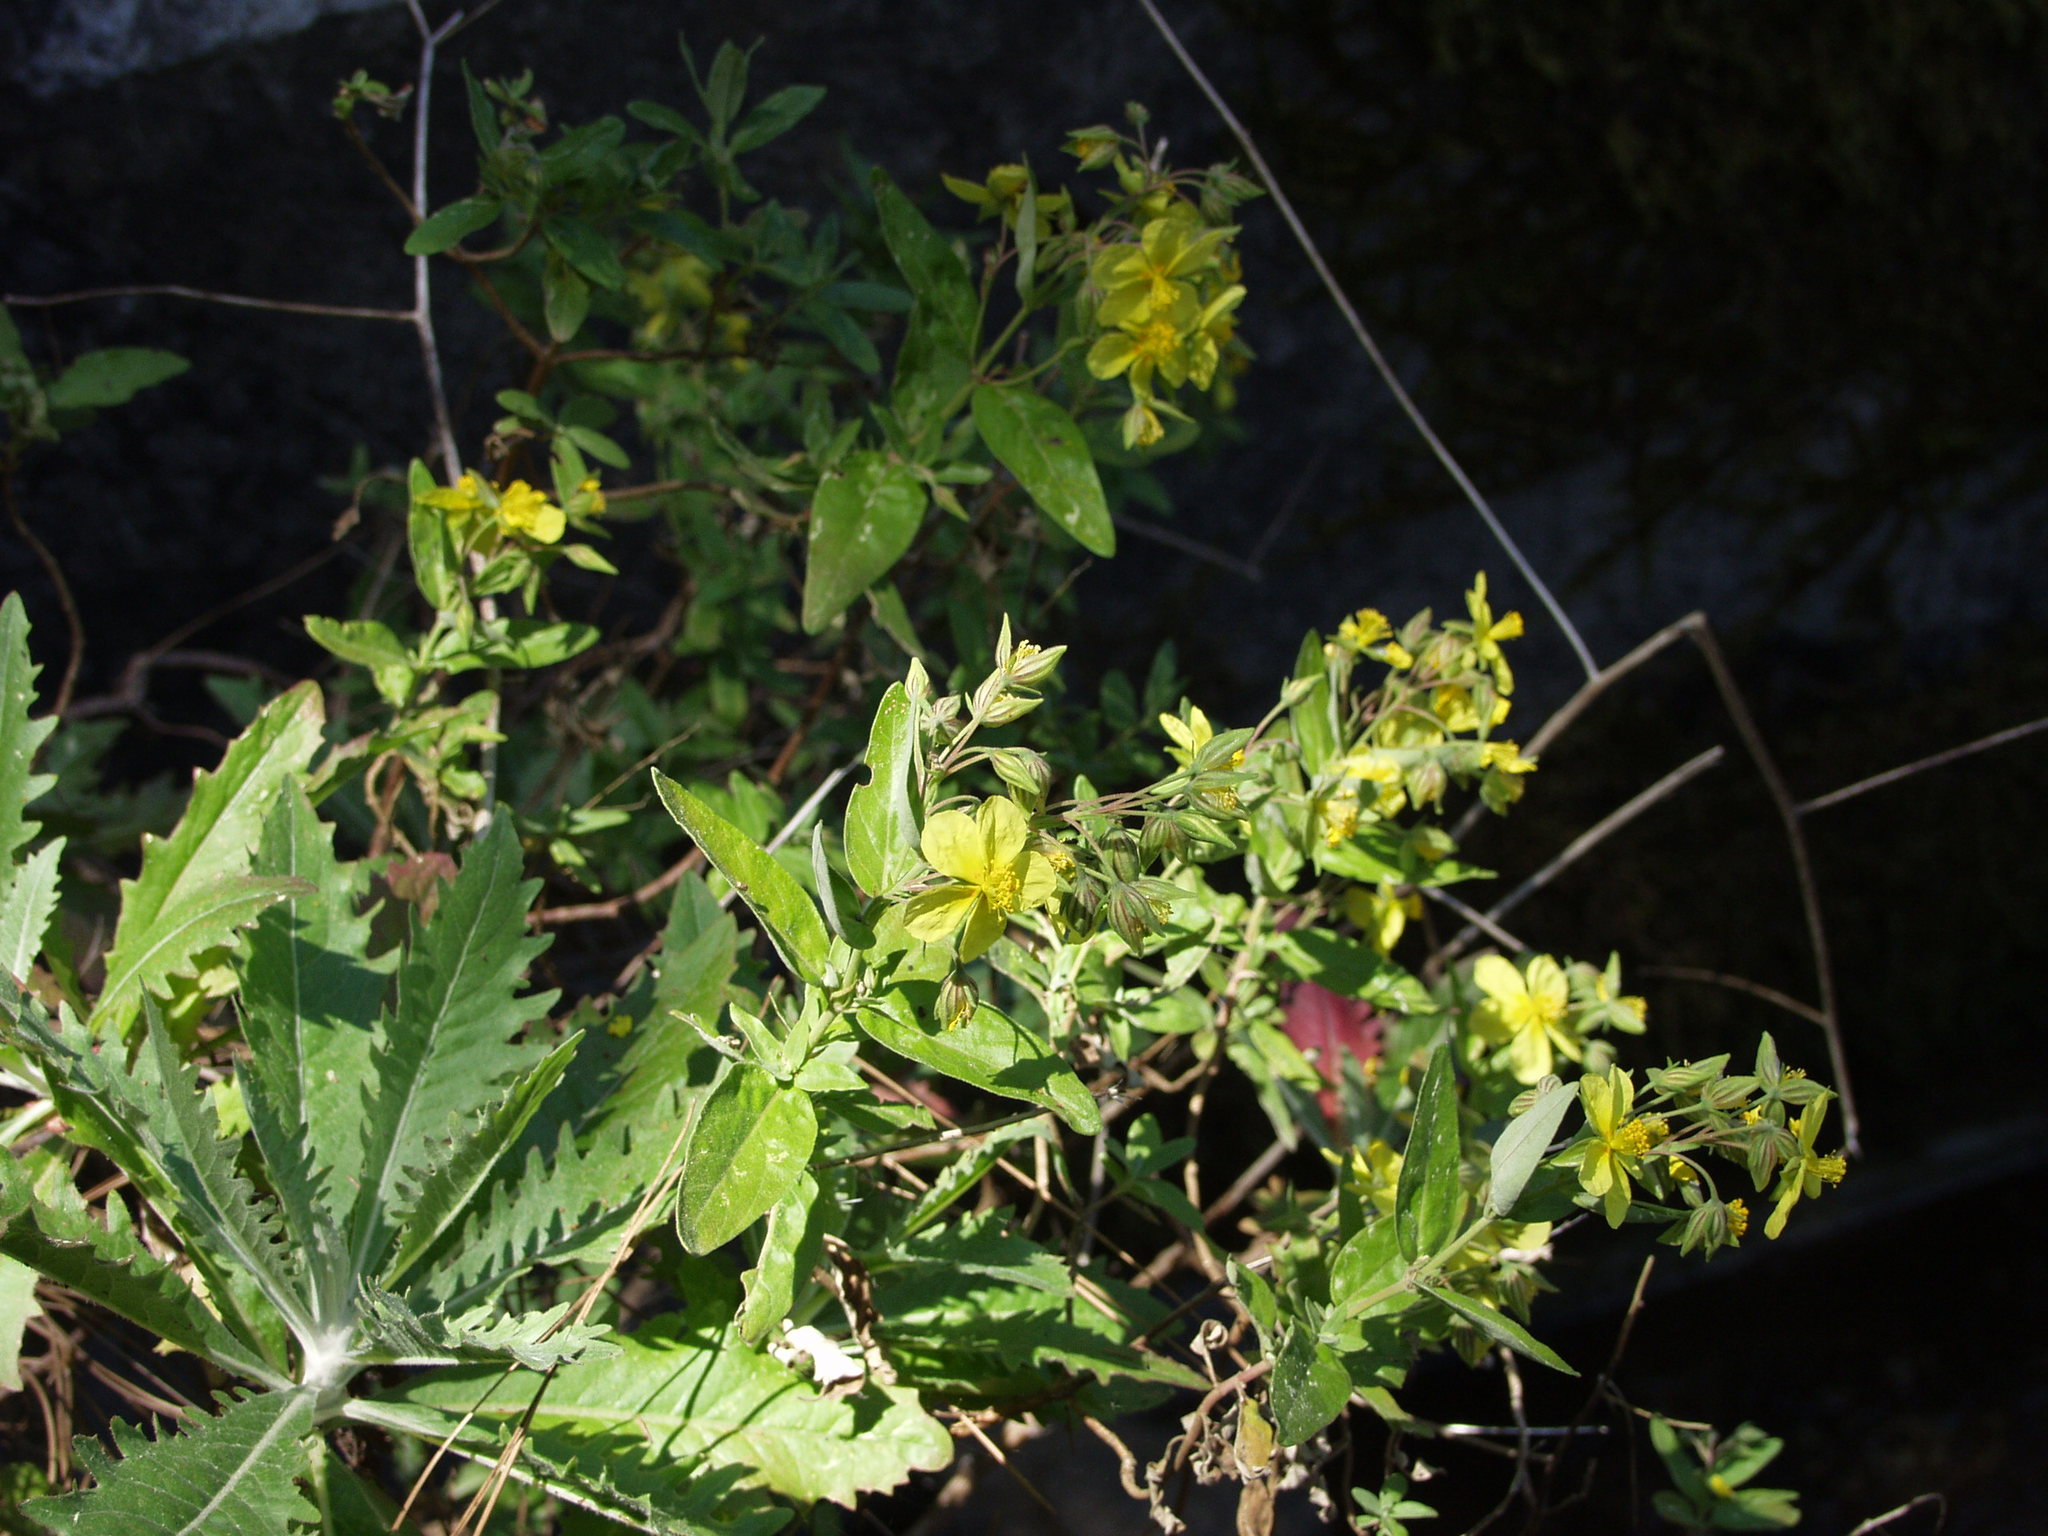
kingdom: Plantae
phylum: Tracheophyta
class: Magnoliopsida
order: Malvales
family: Cistaceae
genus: Helianthemum
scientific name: Helianthemum broussonetii
